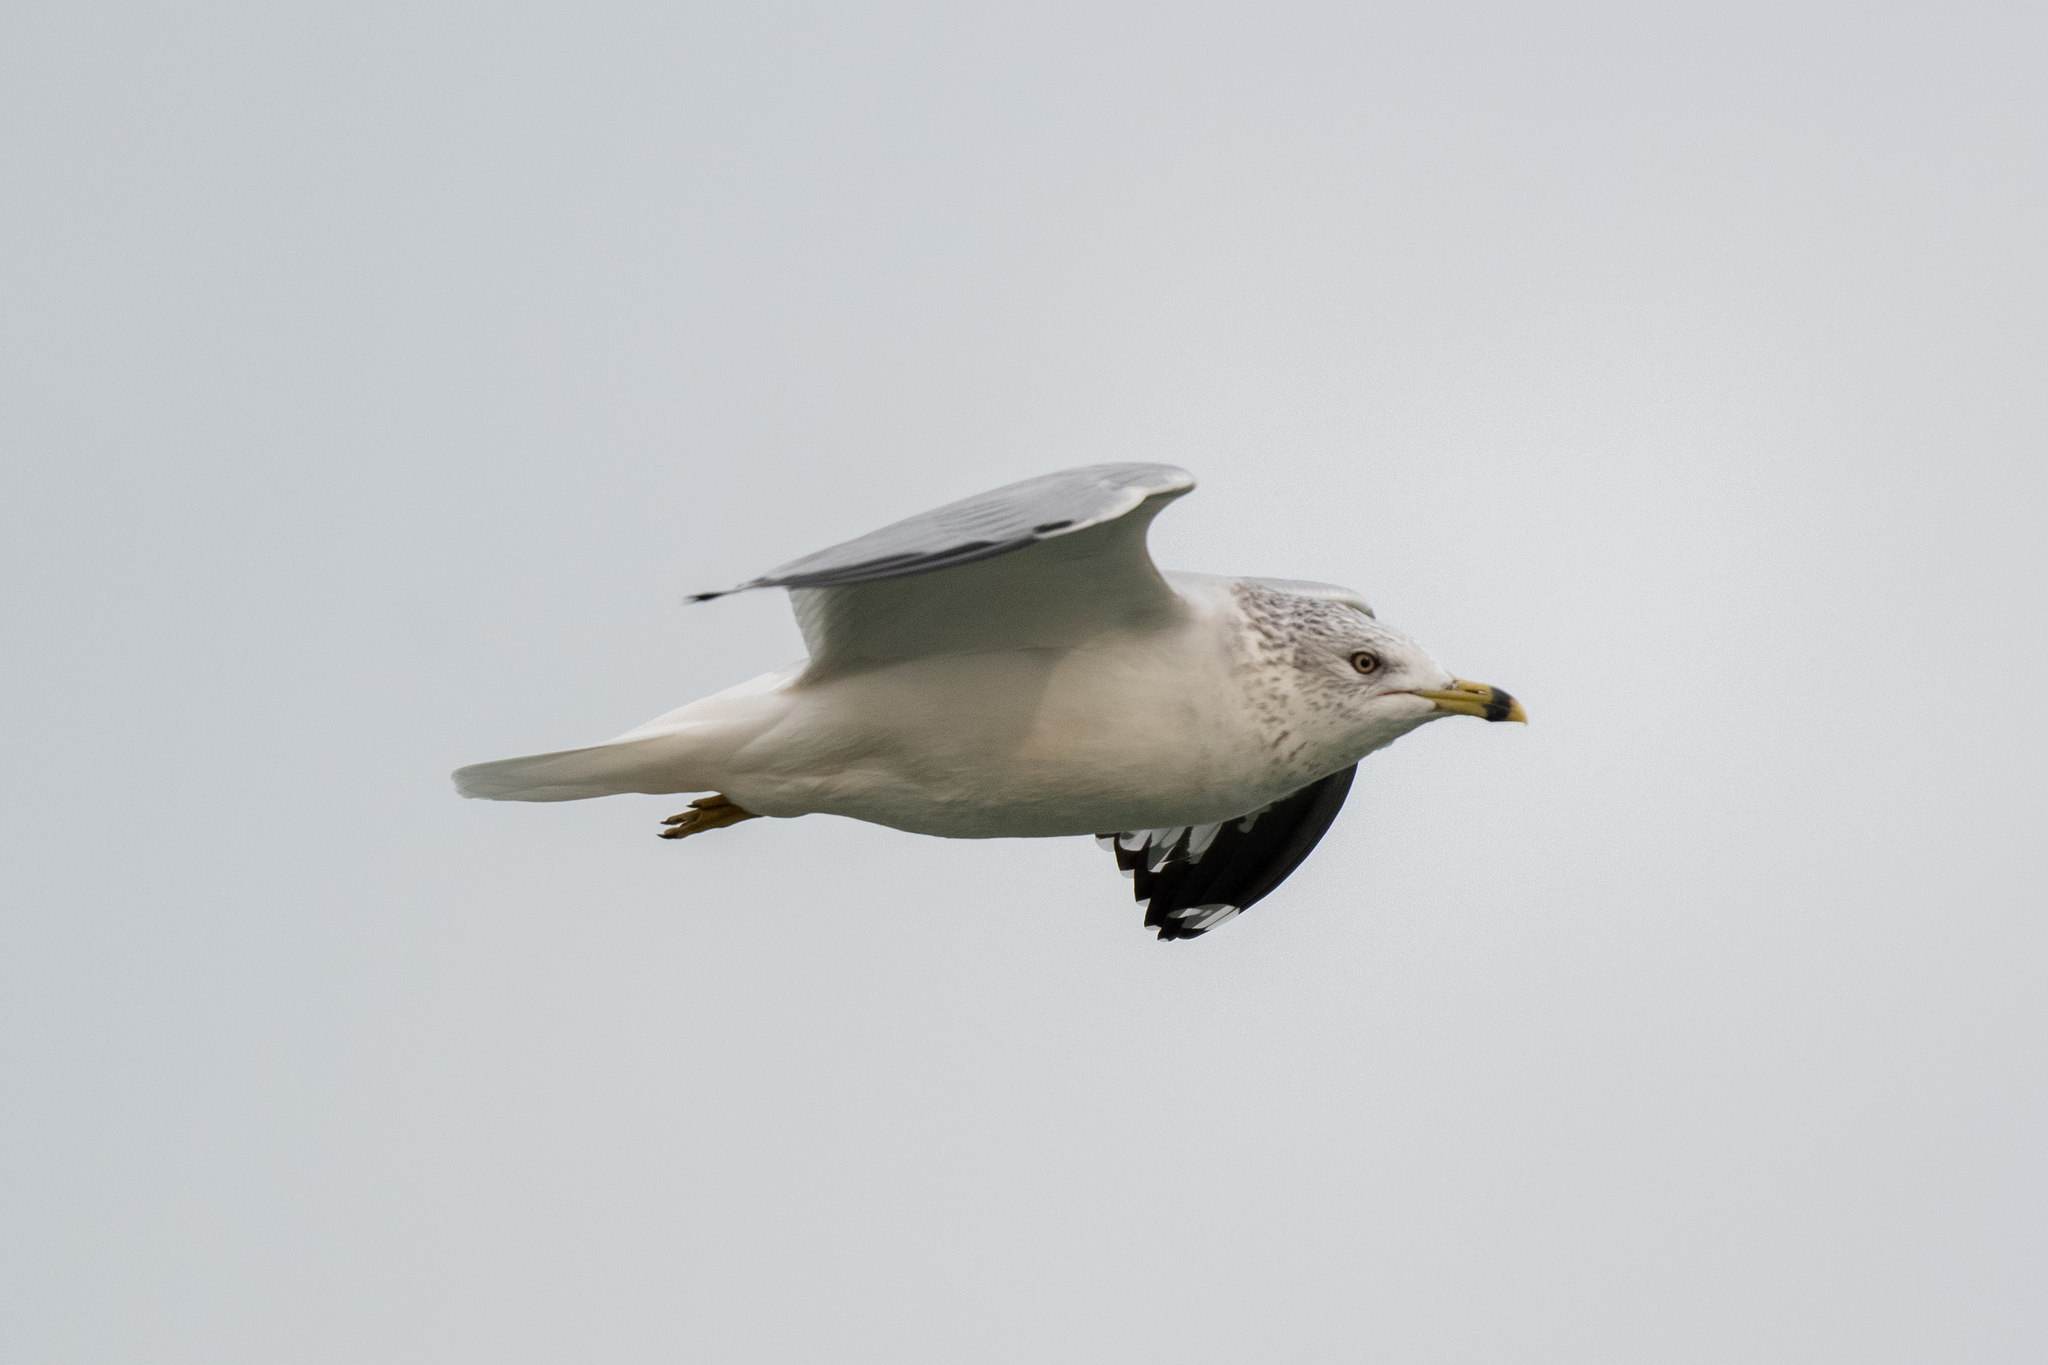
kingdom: Animalia
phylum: Chordata
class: Aves
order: Charadriiformes
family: Laridae
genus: Larus
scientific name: Larus delawarensis
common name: Ring-billed gull
